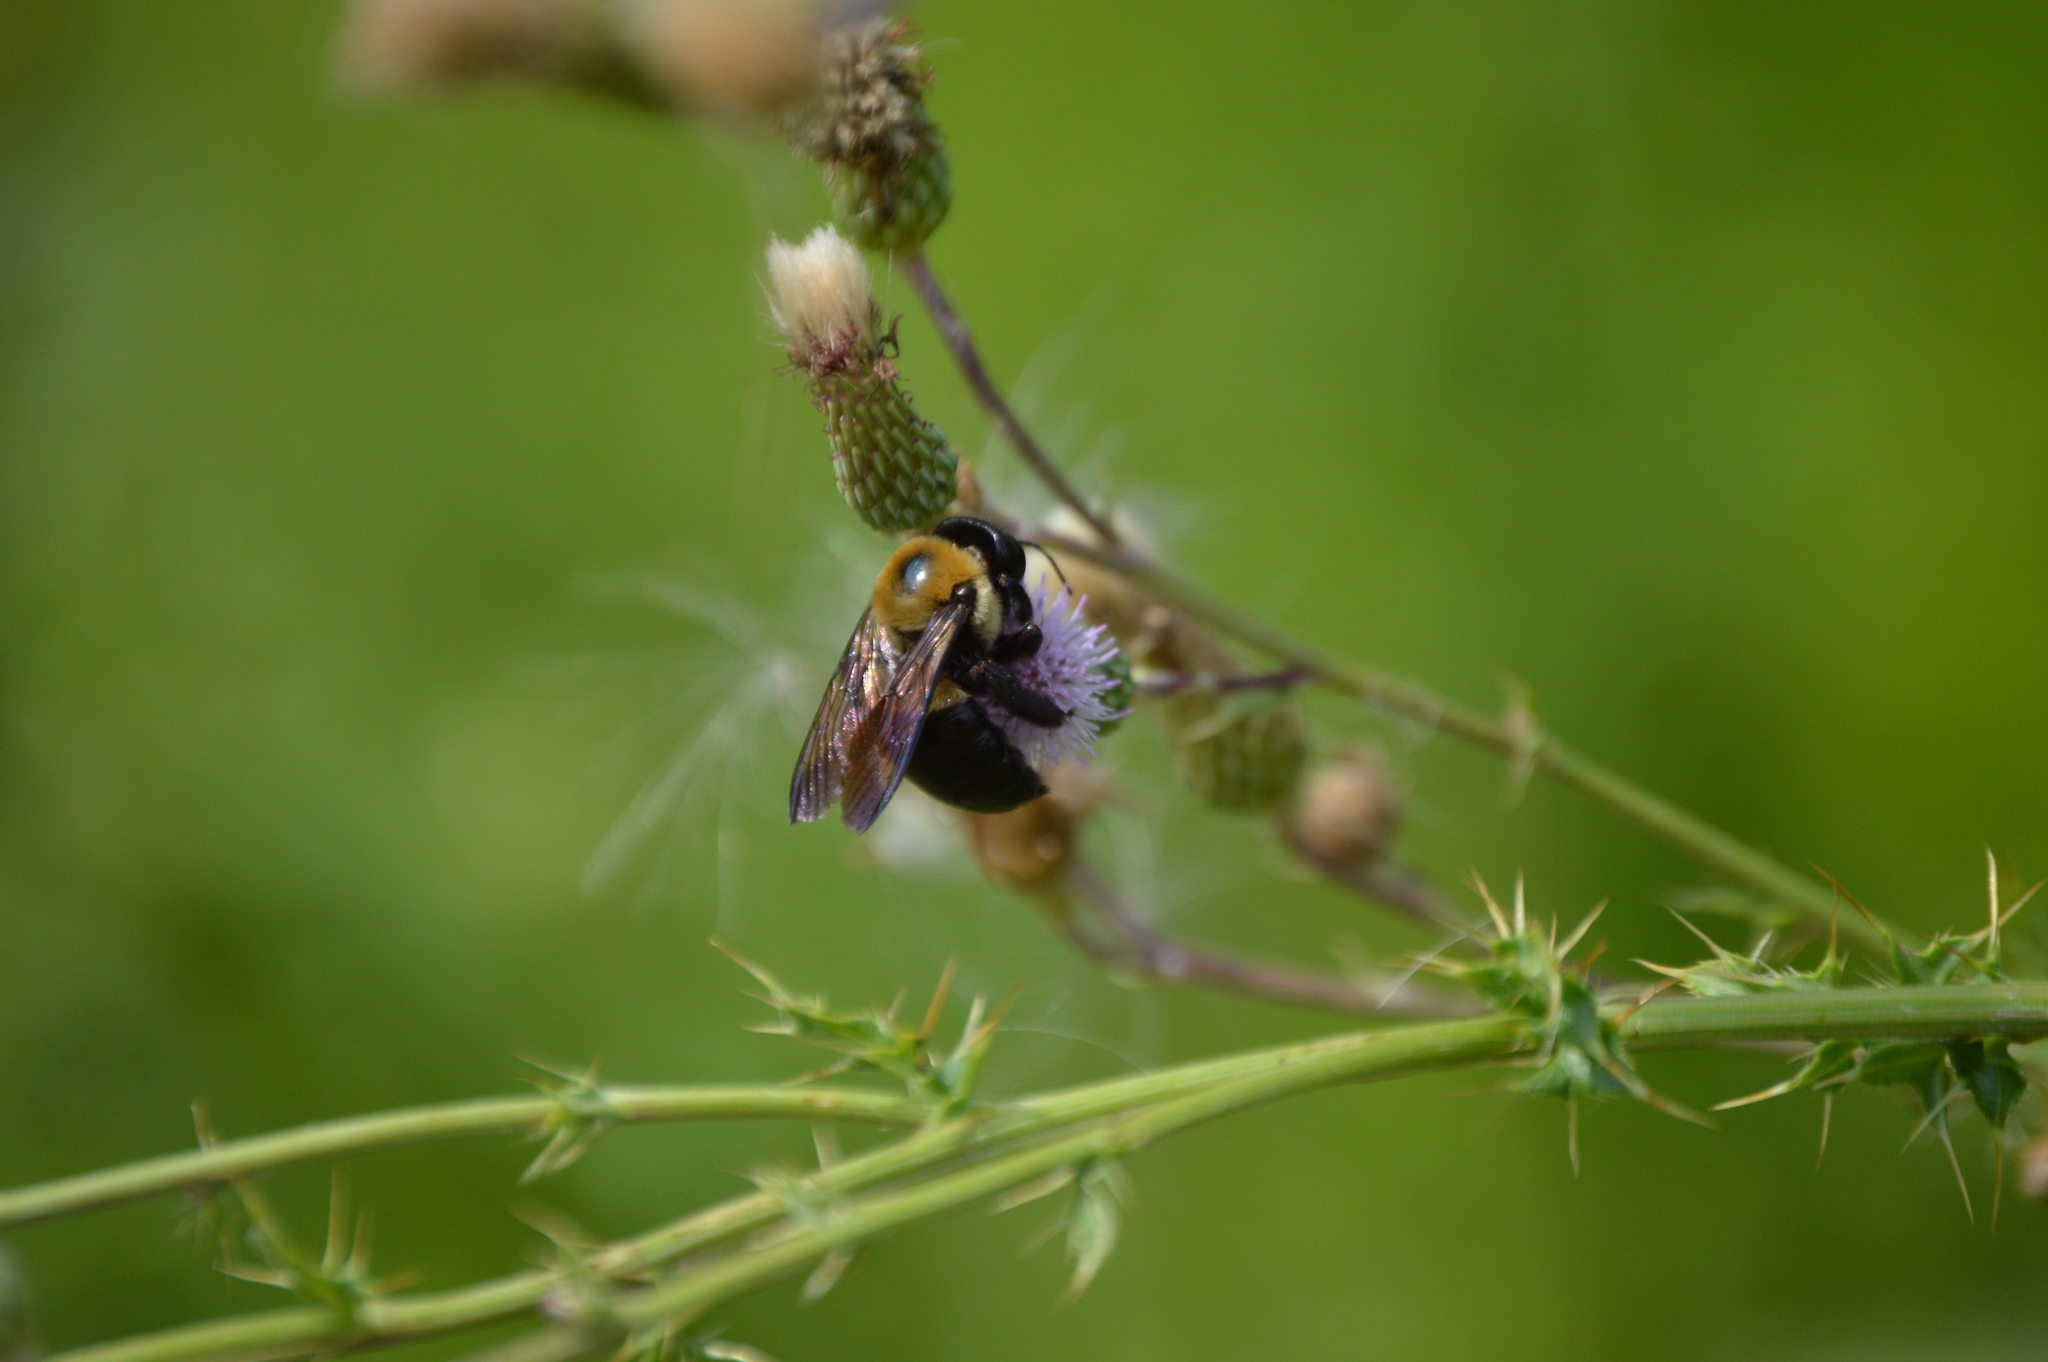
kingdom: Animalia
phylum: Arthropoda
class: Insecta
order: Hymenoptera
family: Apidae
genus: Xylocopa
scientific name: Xylocopa virginica
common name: Carpenter bee
